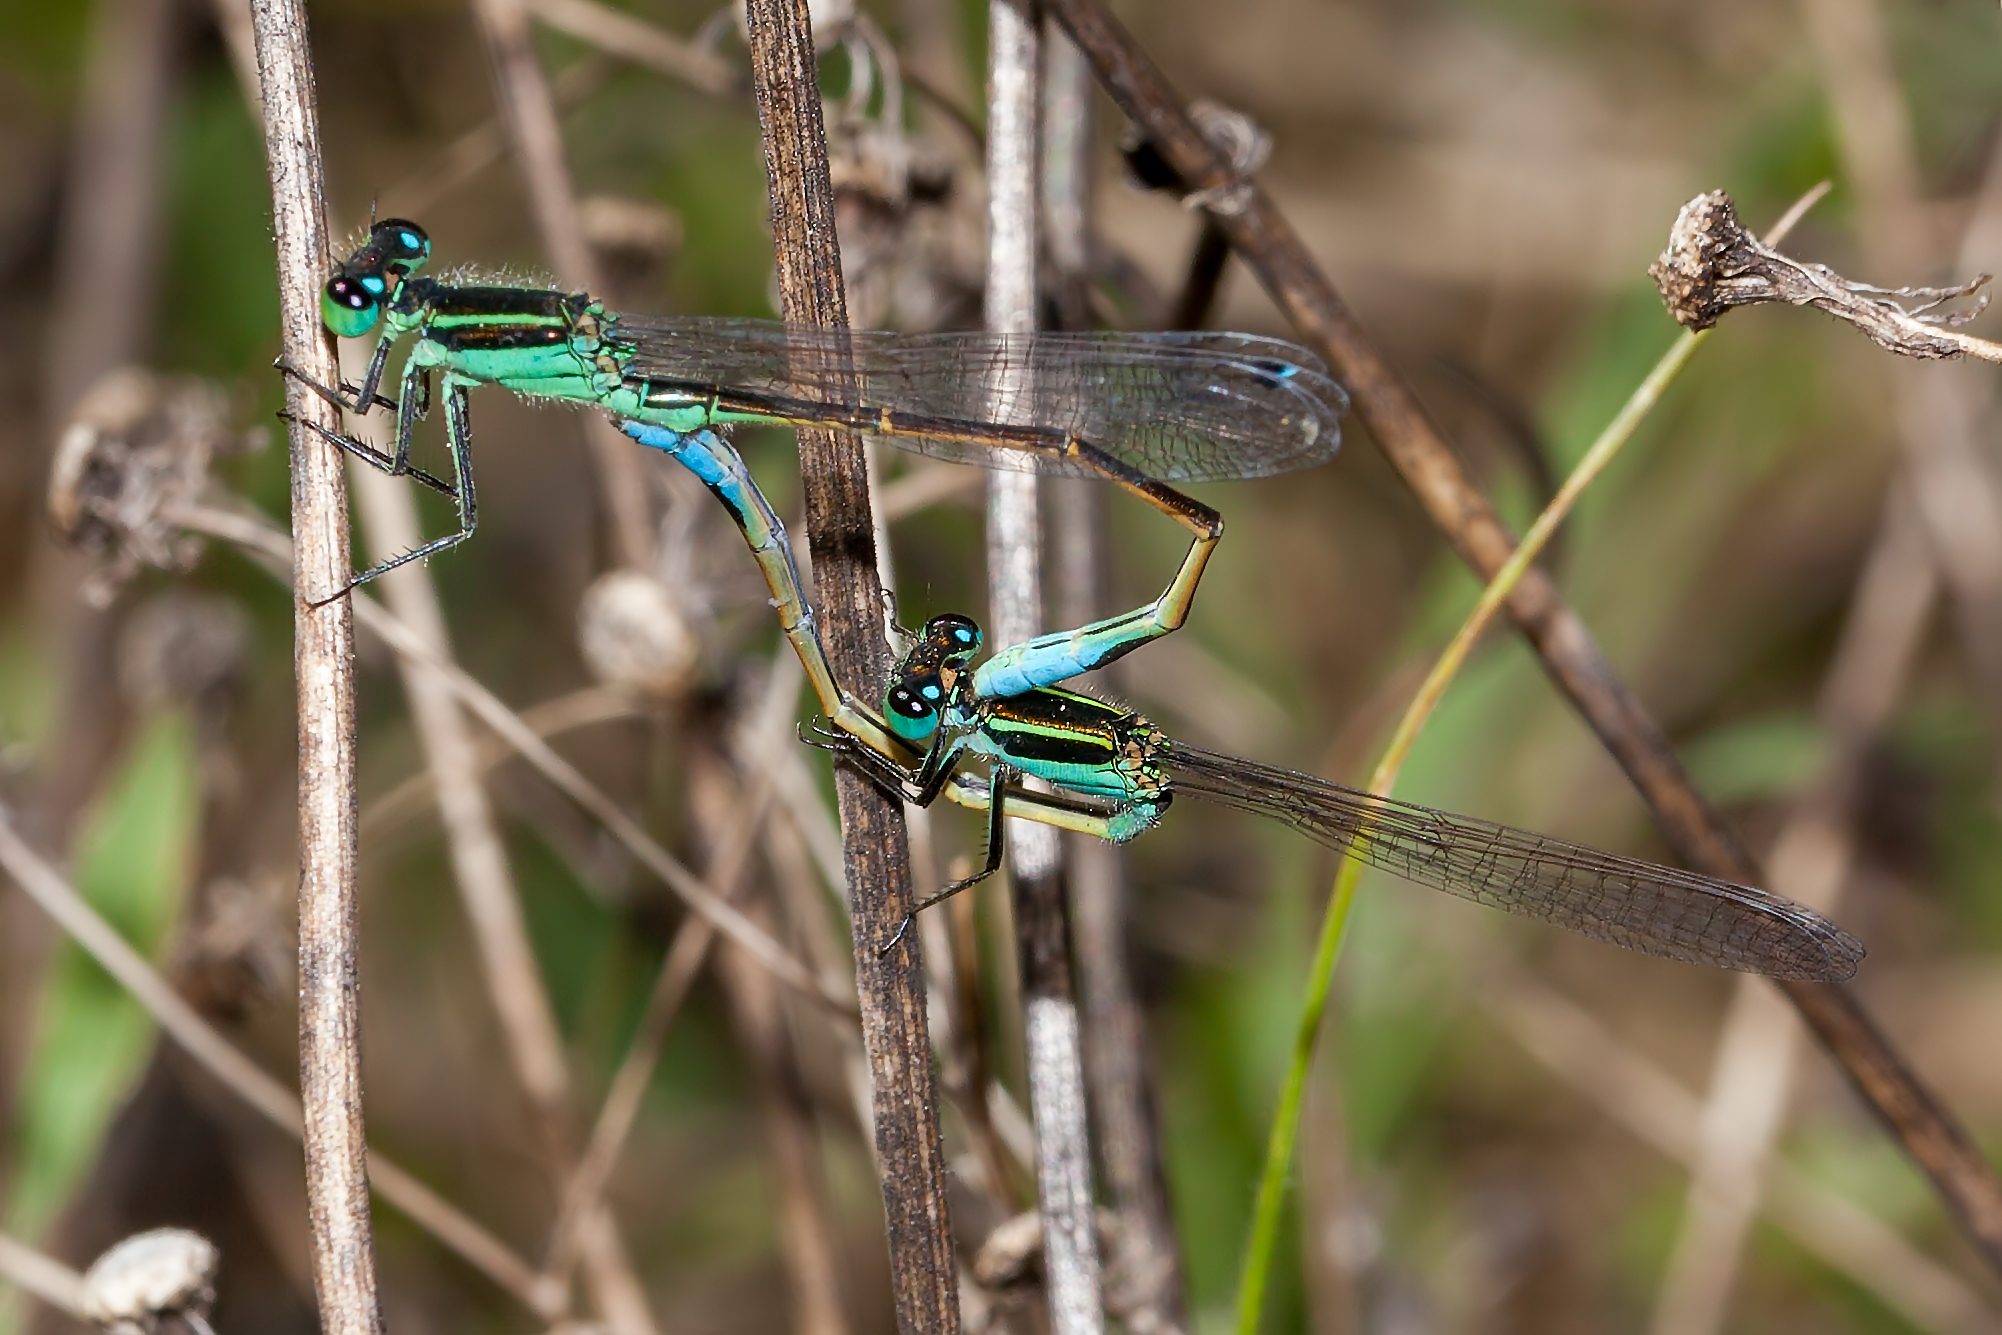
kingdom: Animalia
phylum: Arthropoda
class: Insecta
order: Odonata
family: Coenagrionidae
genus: Ischnura
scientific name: Ischnura ramburii
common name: Rambur's forktail
